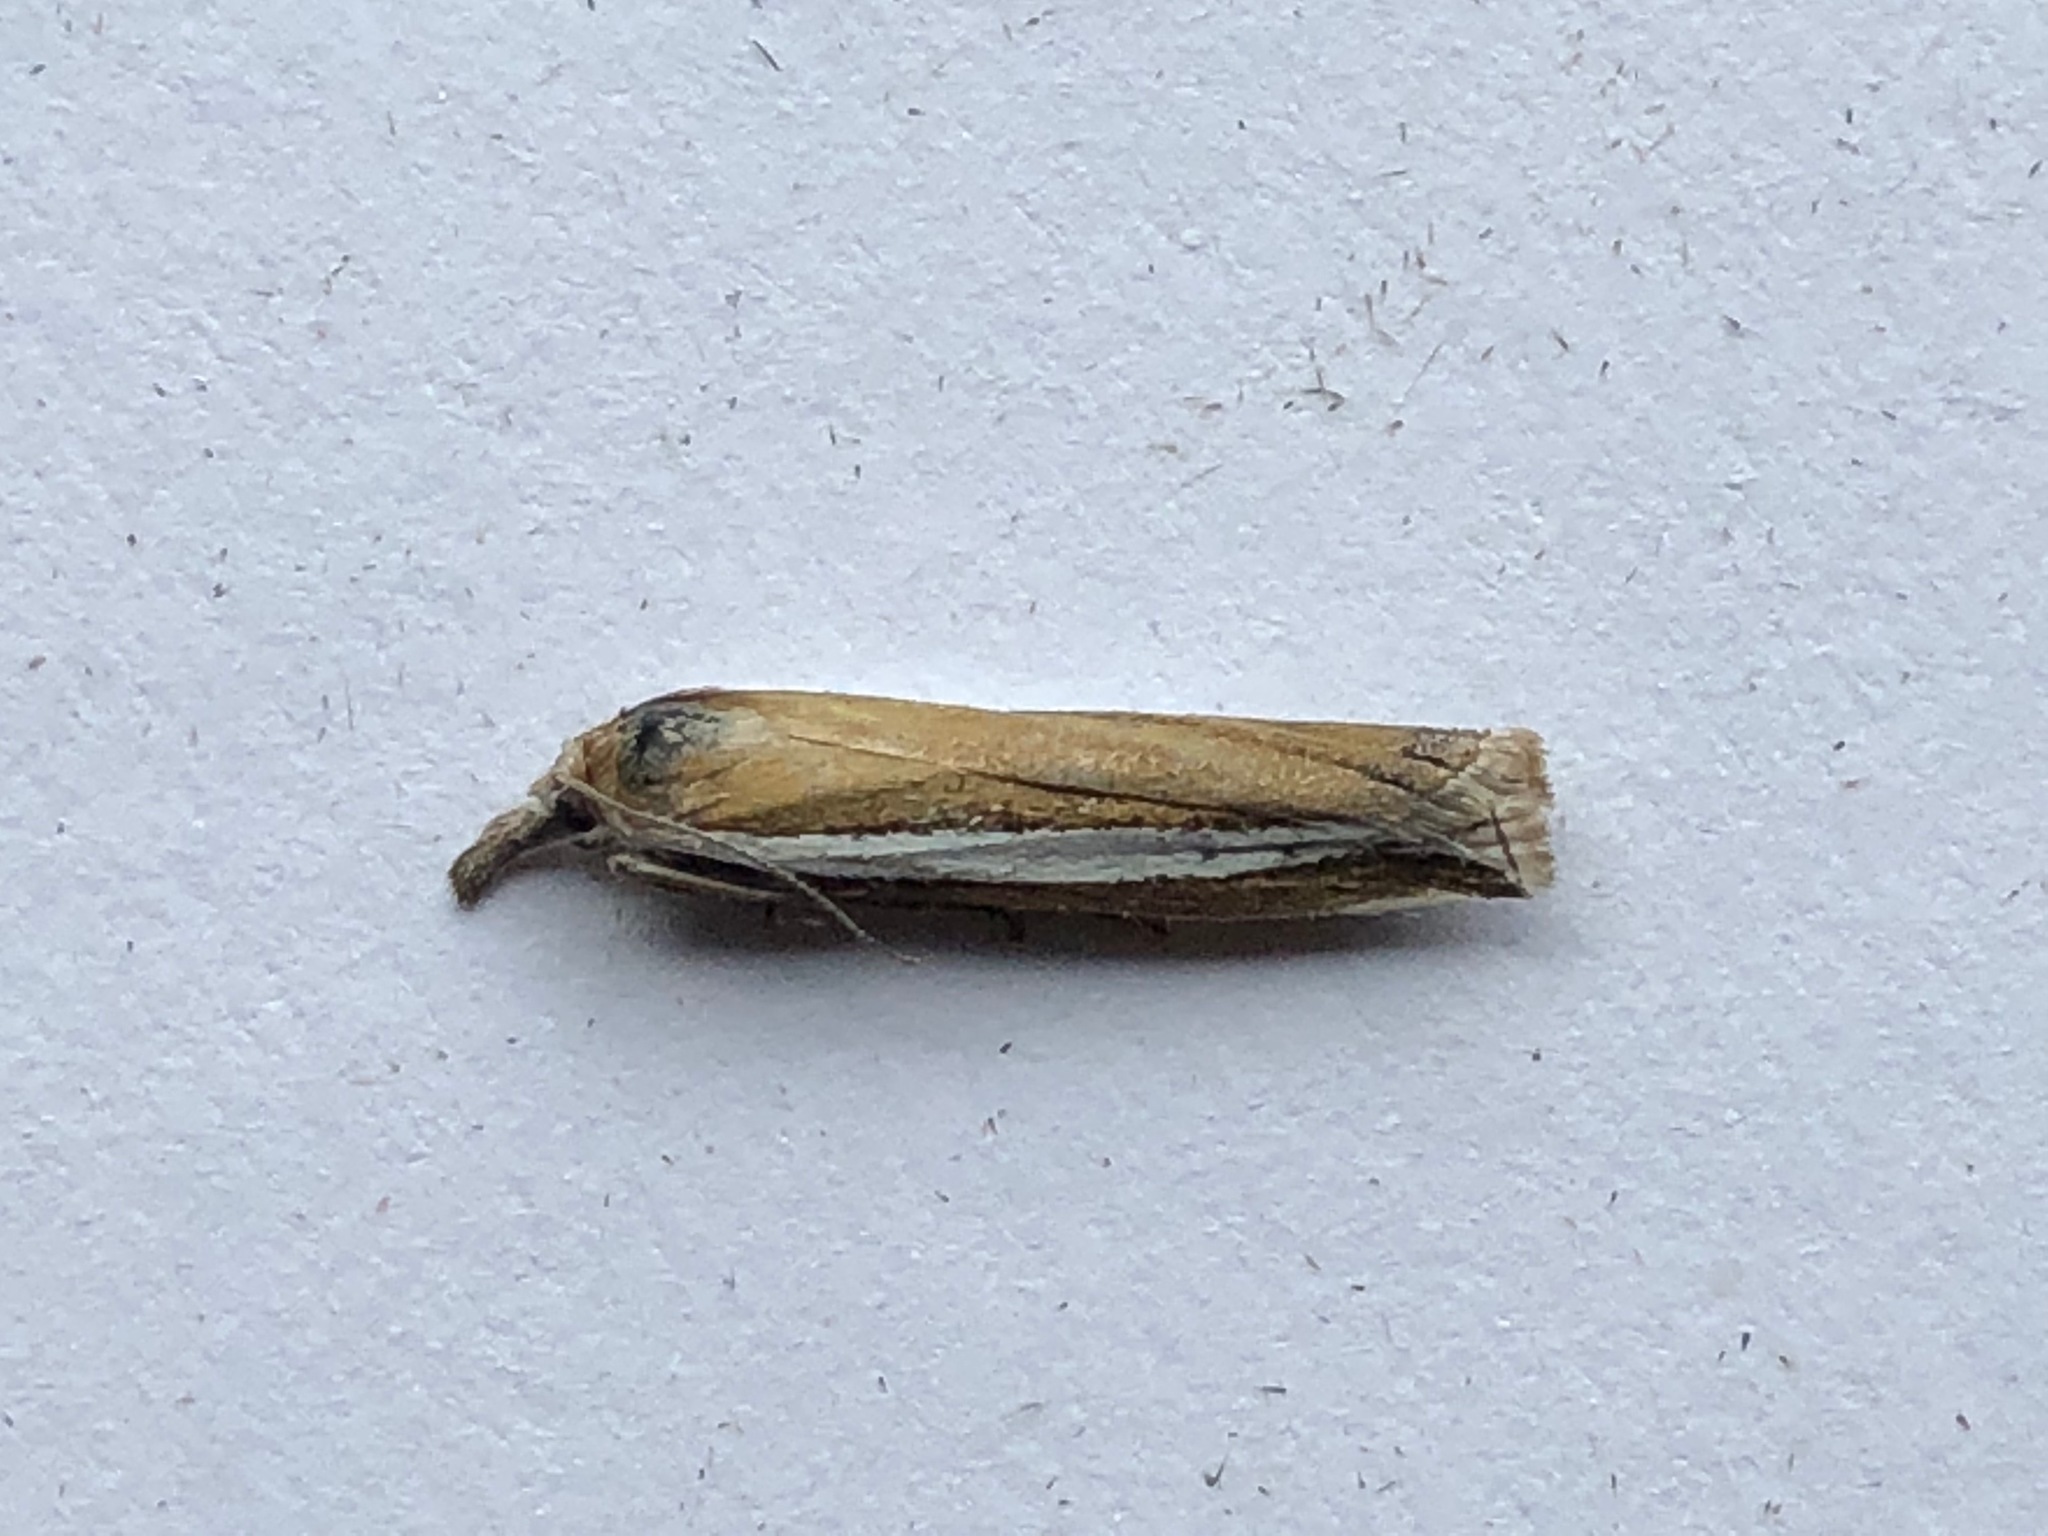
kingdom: Animalia
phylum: Arthropoda
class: Insecta
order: Lepidoptera
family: Crambidae
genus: Crambus
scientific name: Crambus unistriatellus
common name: Wide-stripe grass-veneer moth
